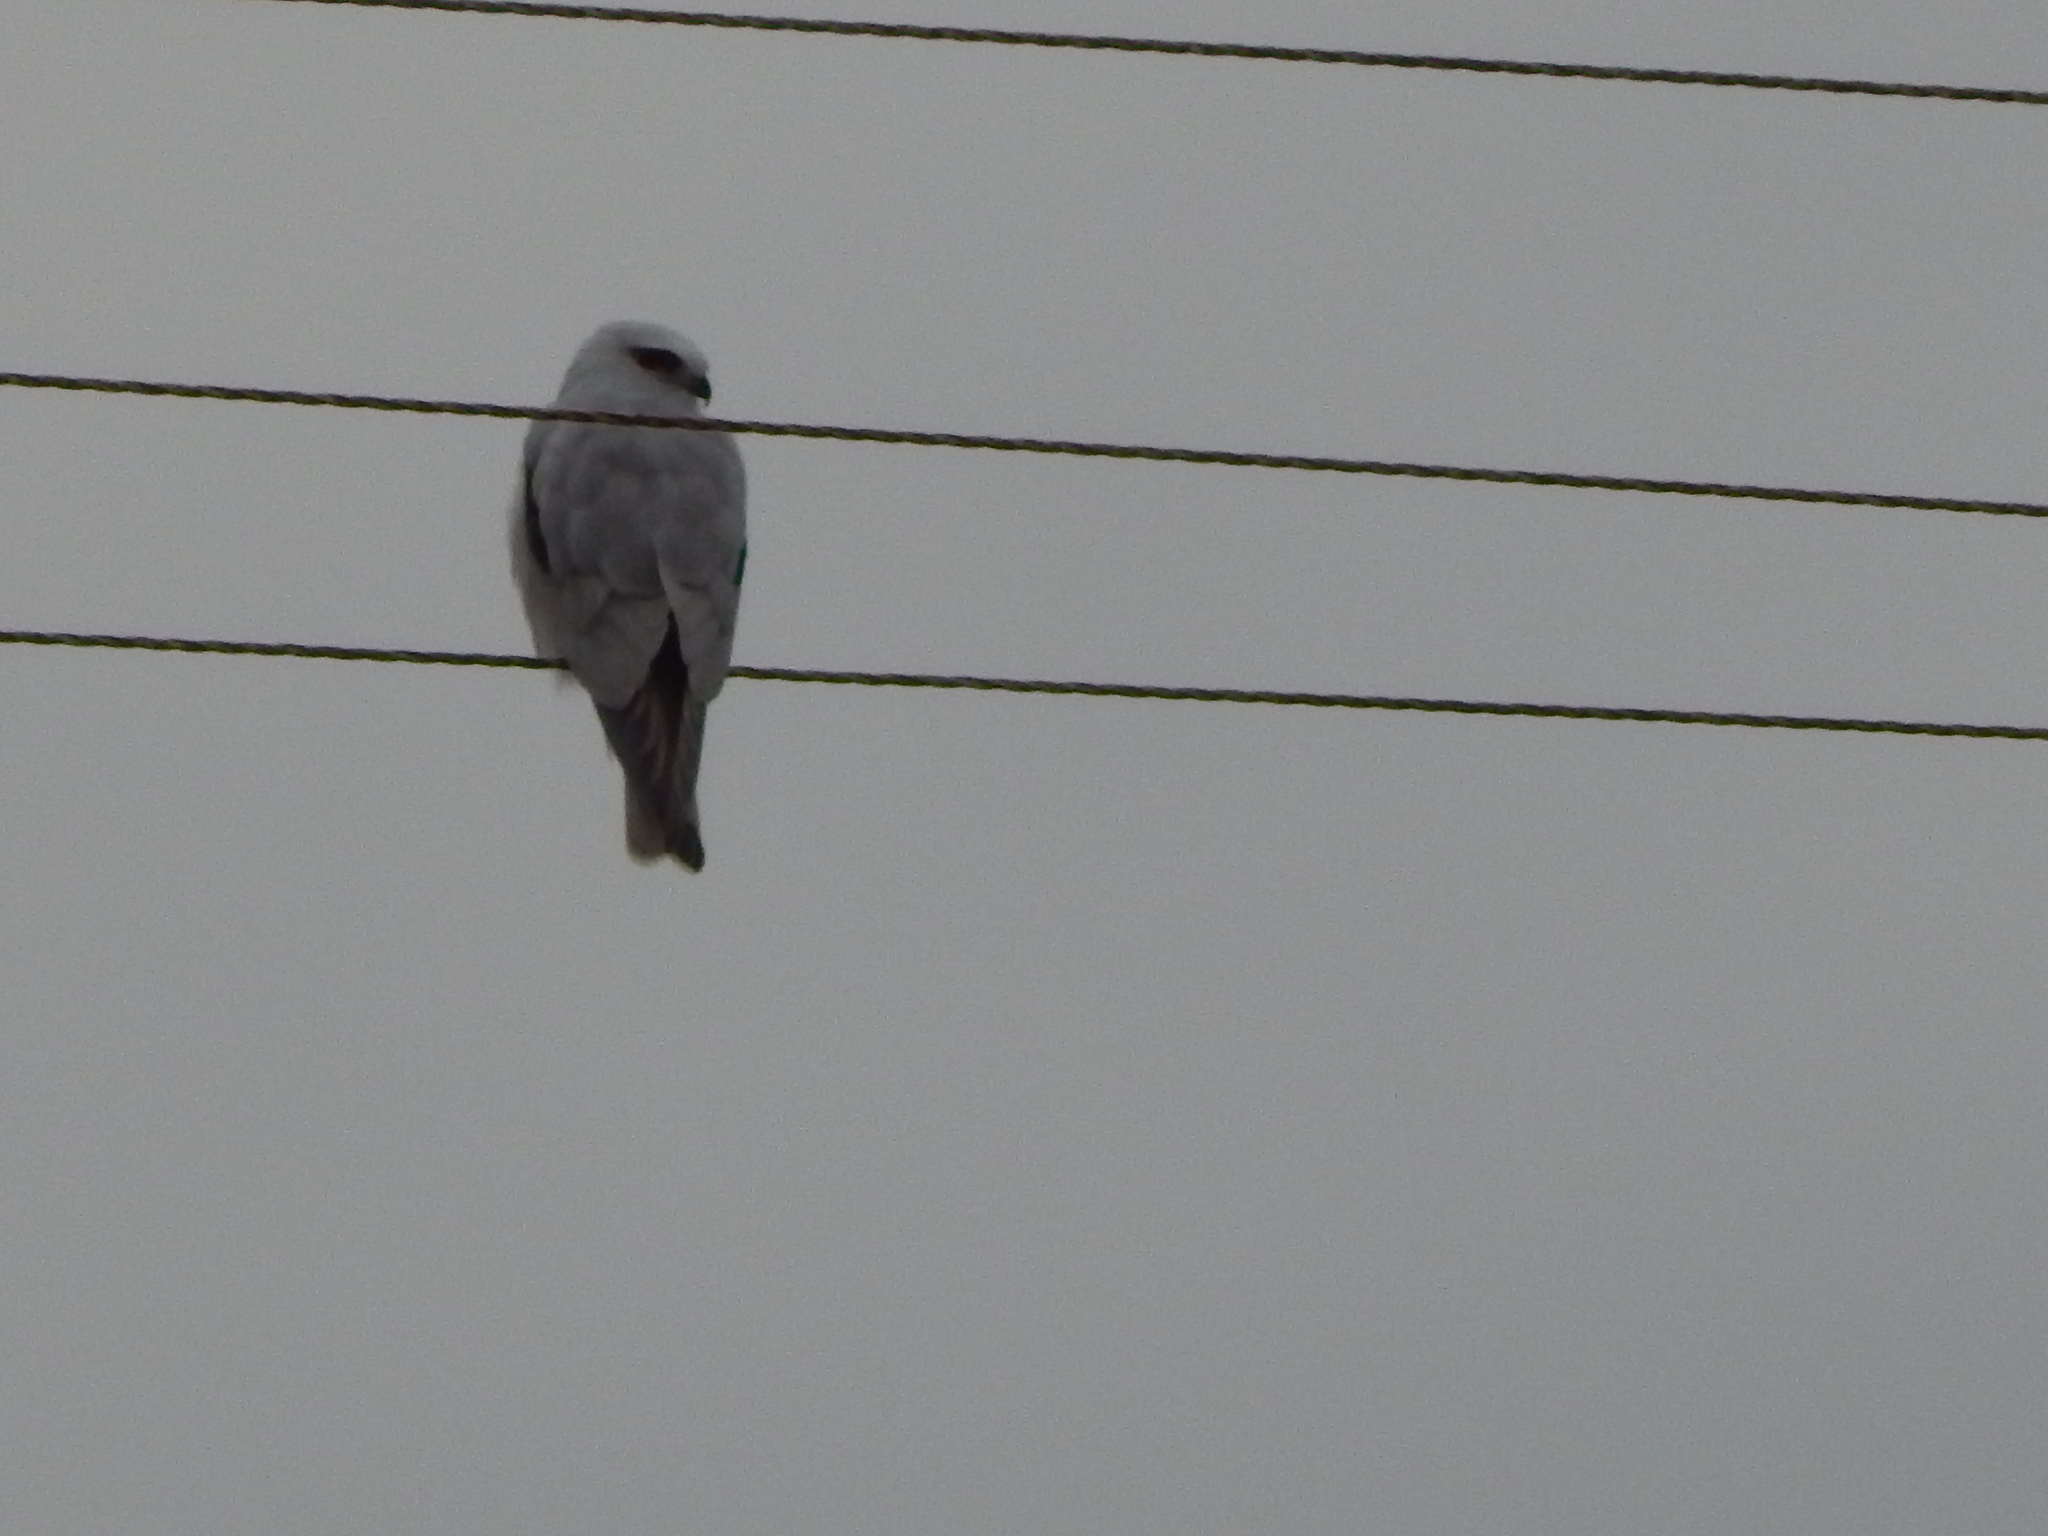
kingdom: Animalia
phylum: Chordata
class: Aves
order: Accipitriformes
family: Accipitridae
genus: Elanus
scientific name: Elanus axillaris
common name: Black-shouldered kite
